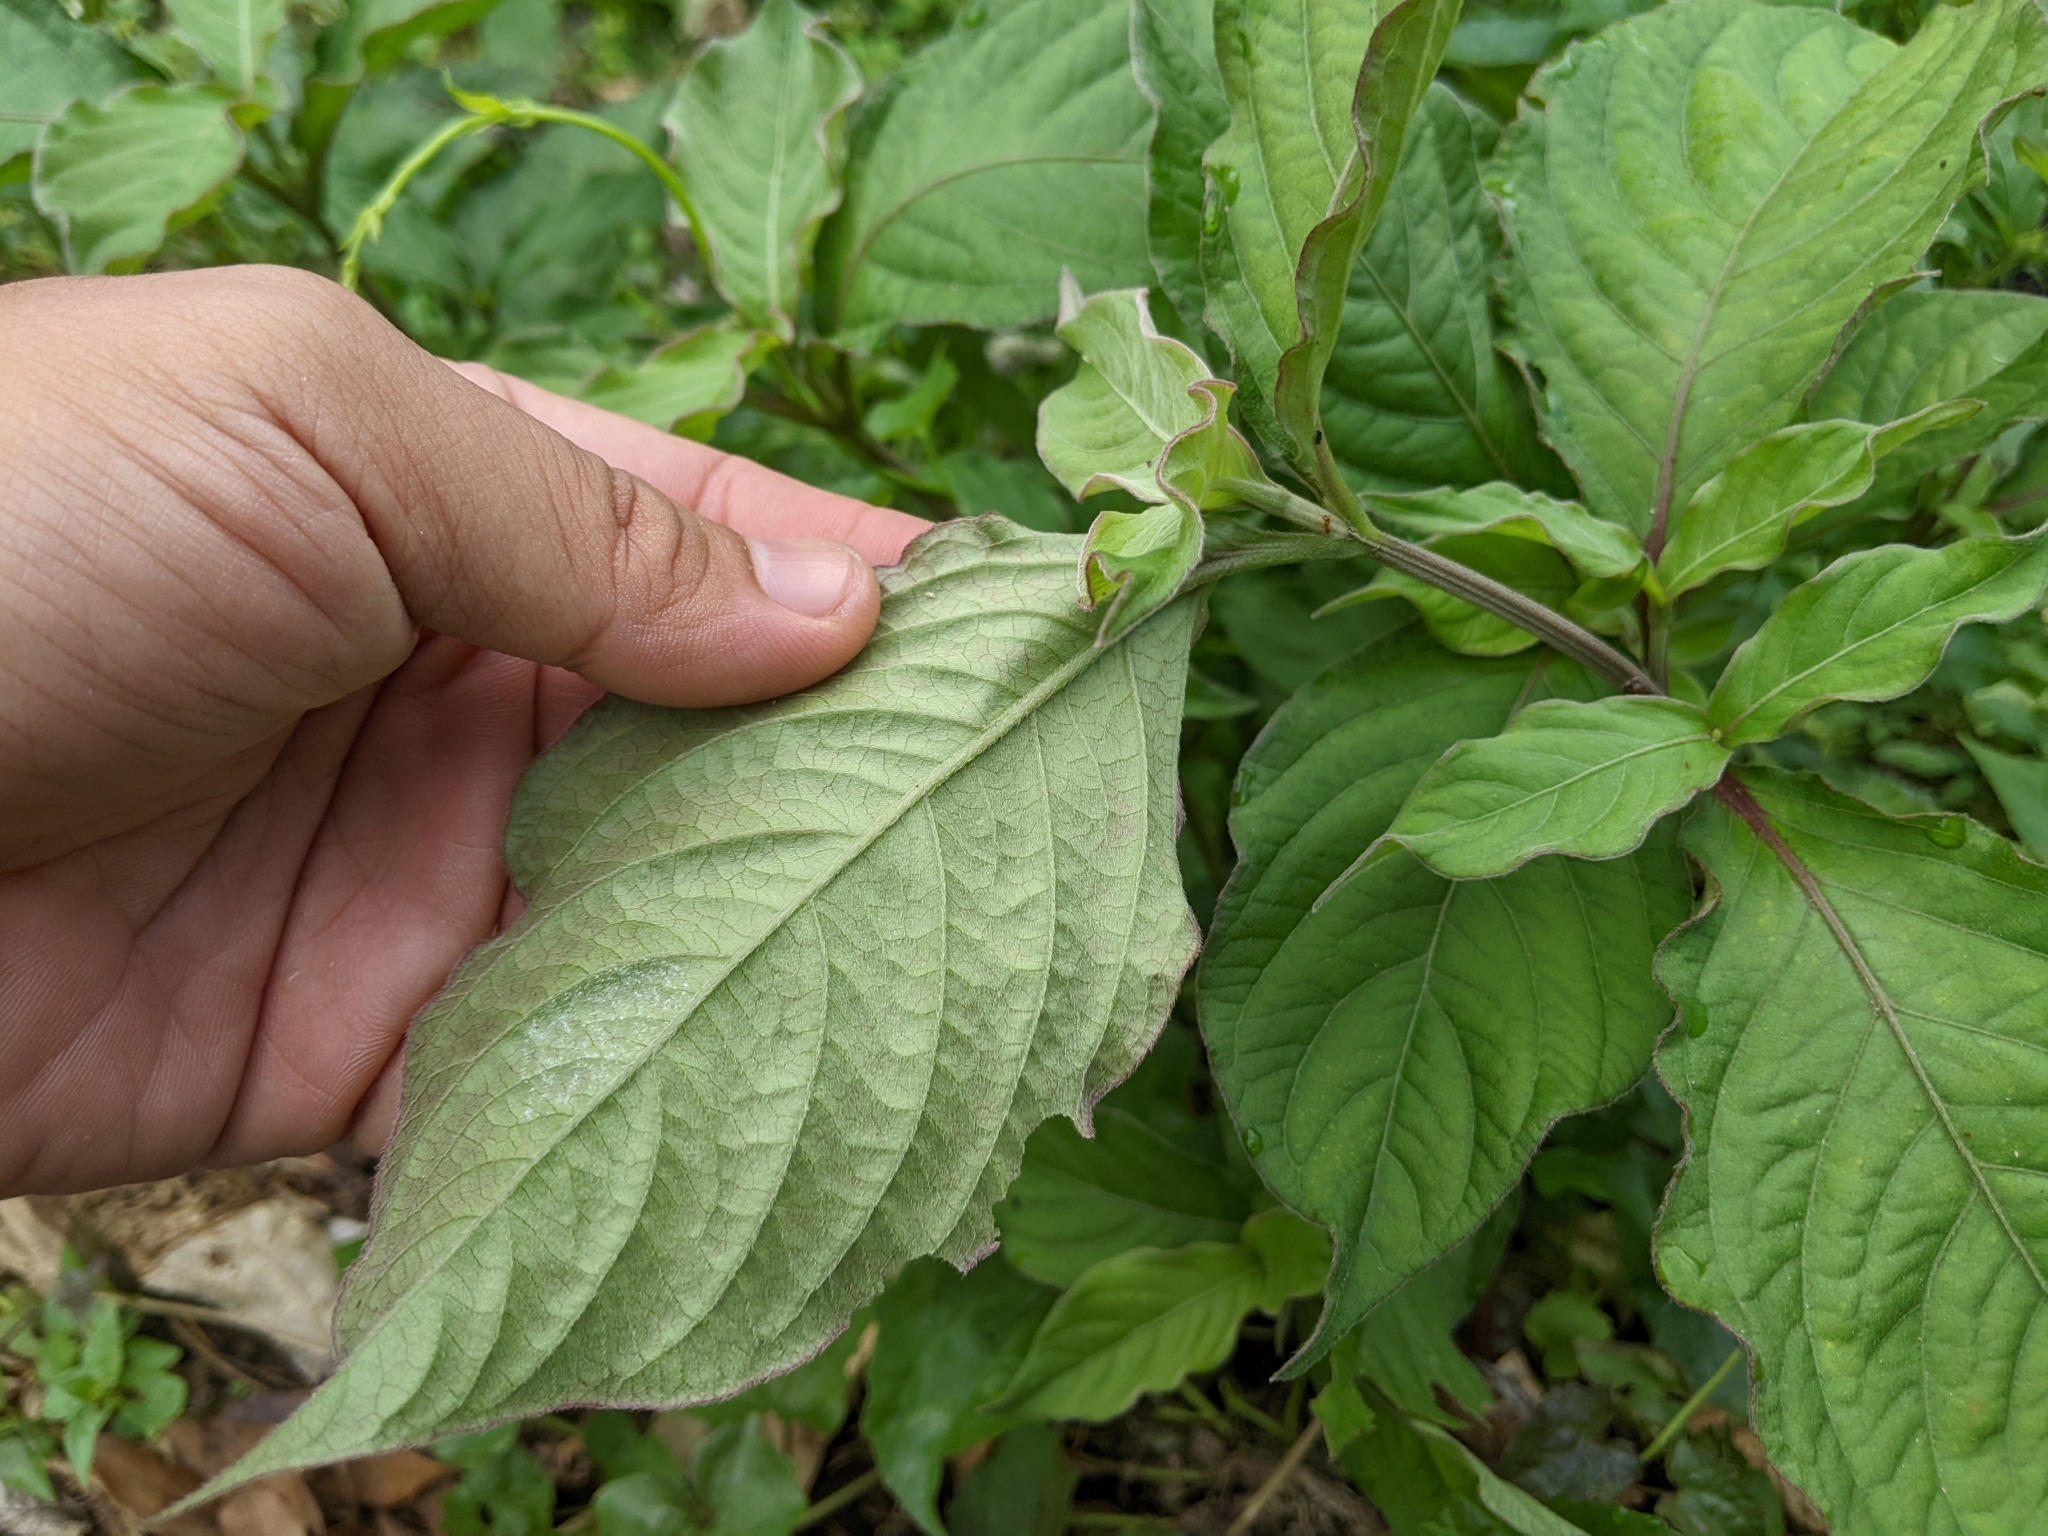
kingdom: Plantae
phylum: Tracheophyta
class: Magnoliopsida
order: Caryophyllales
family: Amaranthaceae
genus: Achyranthes
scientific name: Achyranthes aspera
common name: Devil's horsewhip
